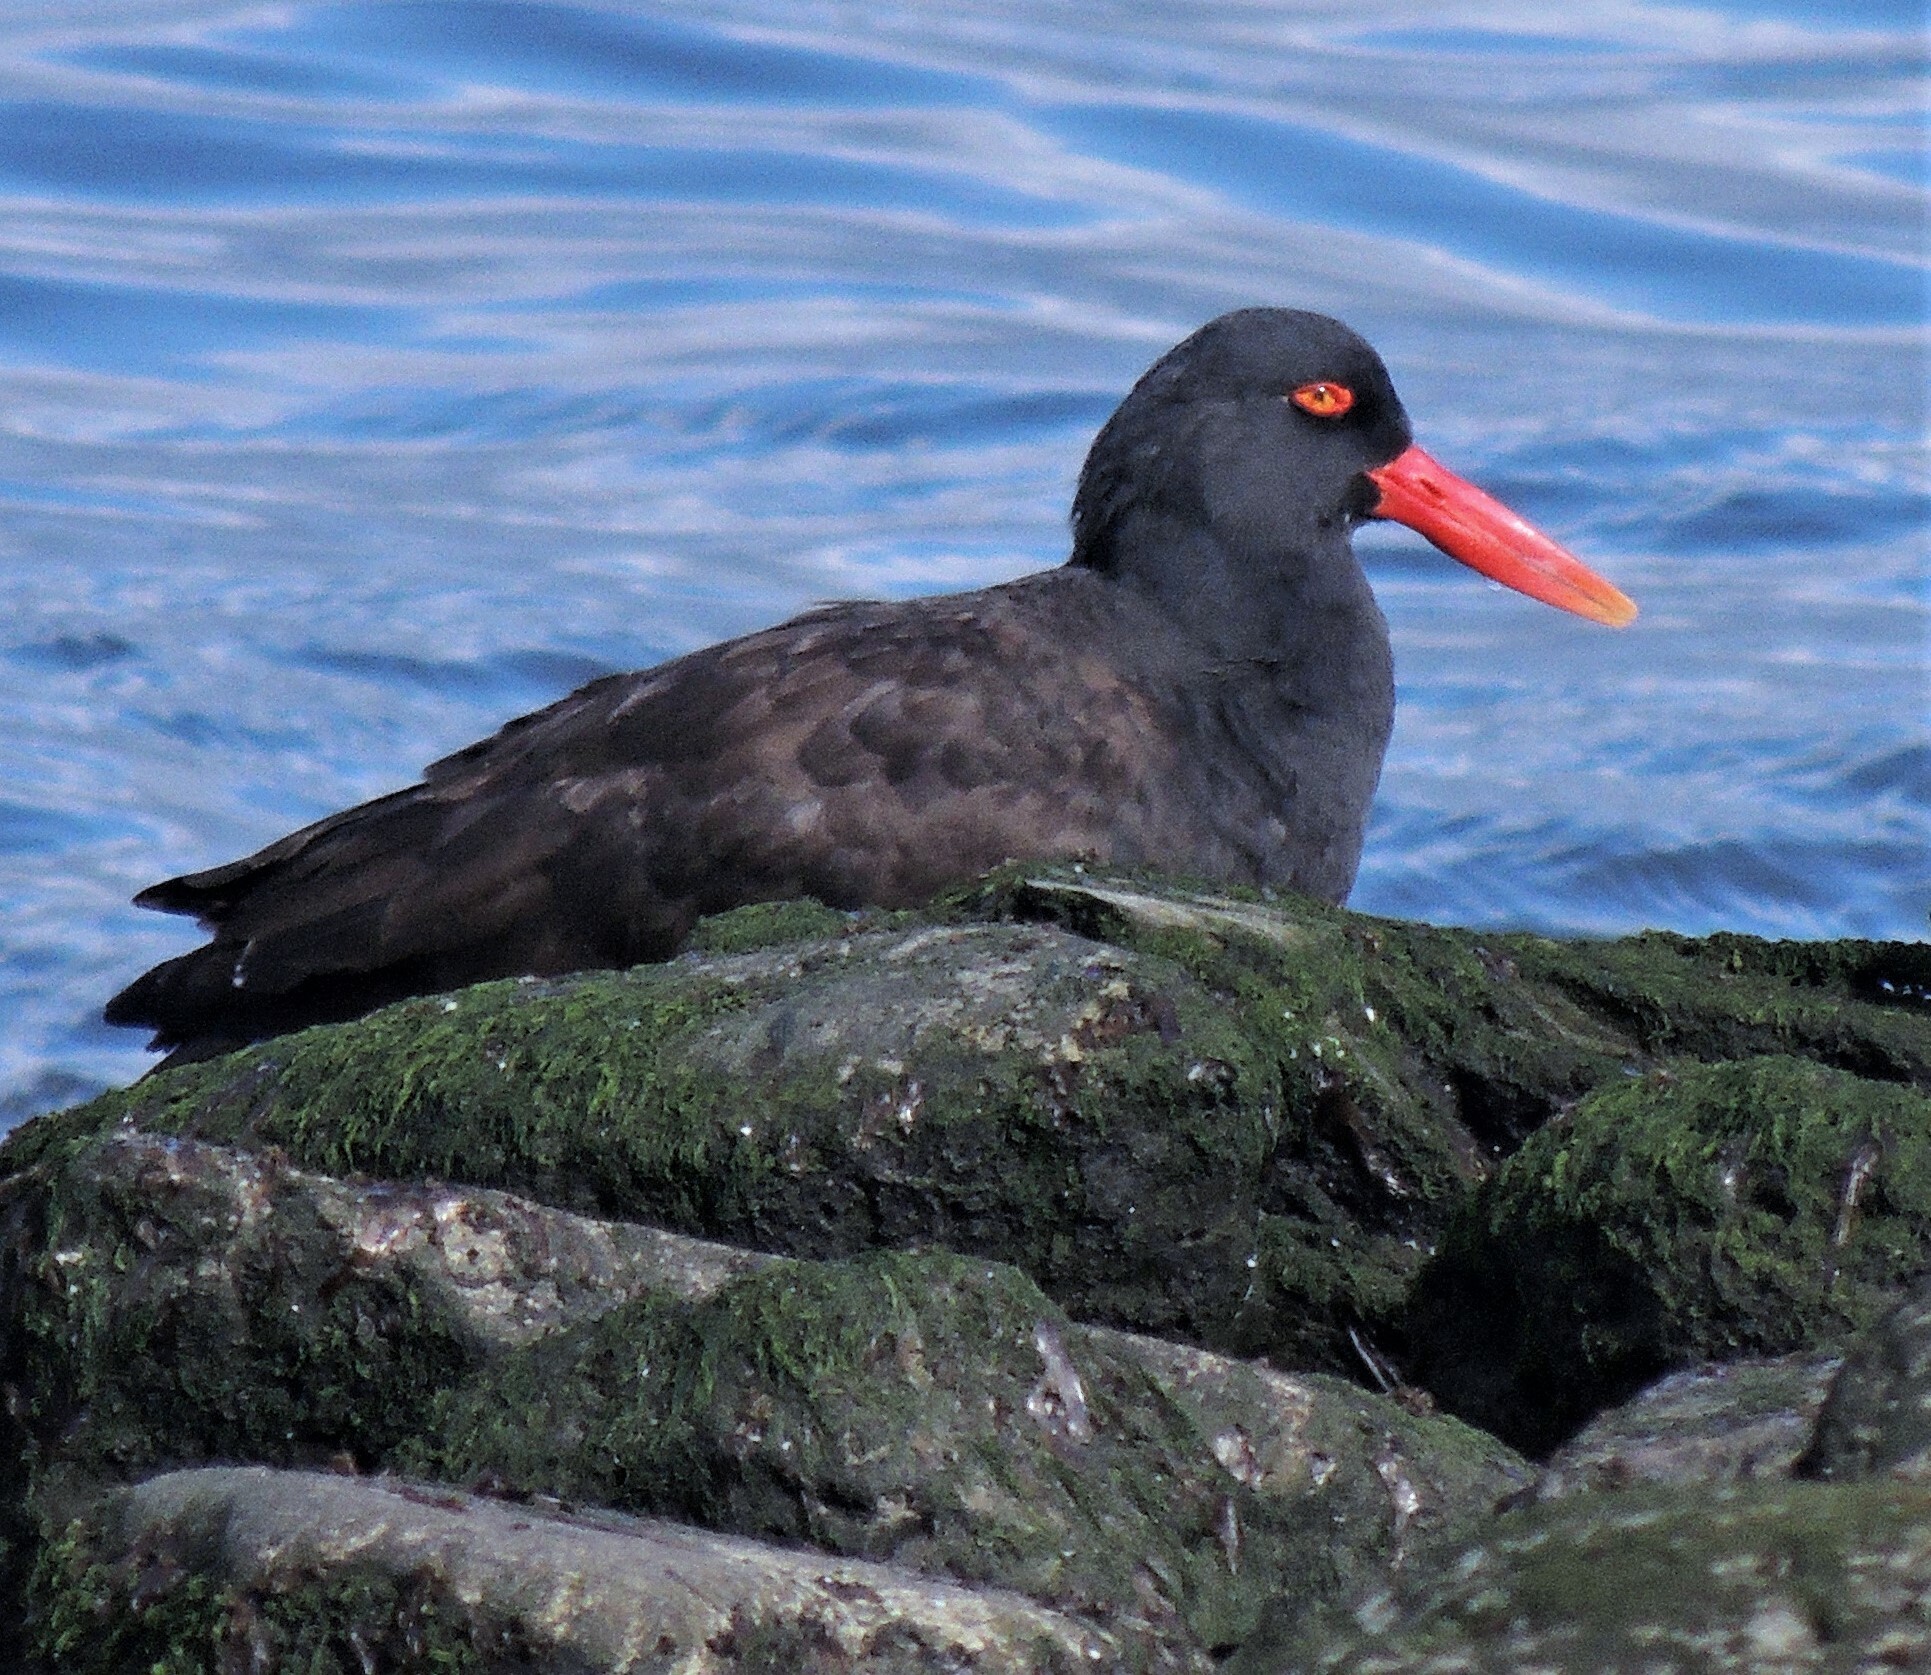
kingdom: Animalia
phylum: Chordata
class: Aves
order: Charadriiformes
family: Haematopodidae
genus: Haematopus
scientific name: Haematopus ater
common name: Blackish oystercatcher
